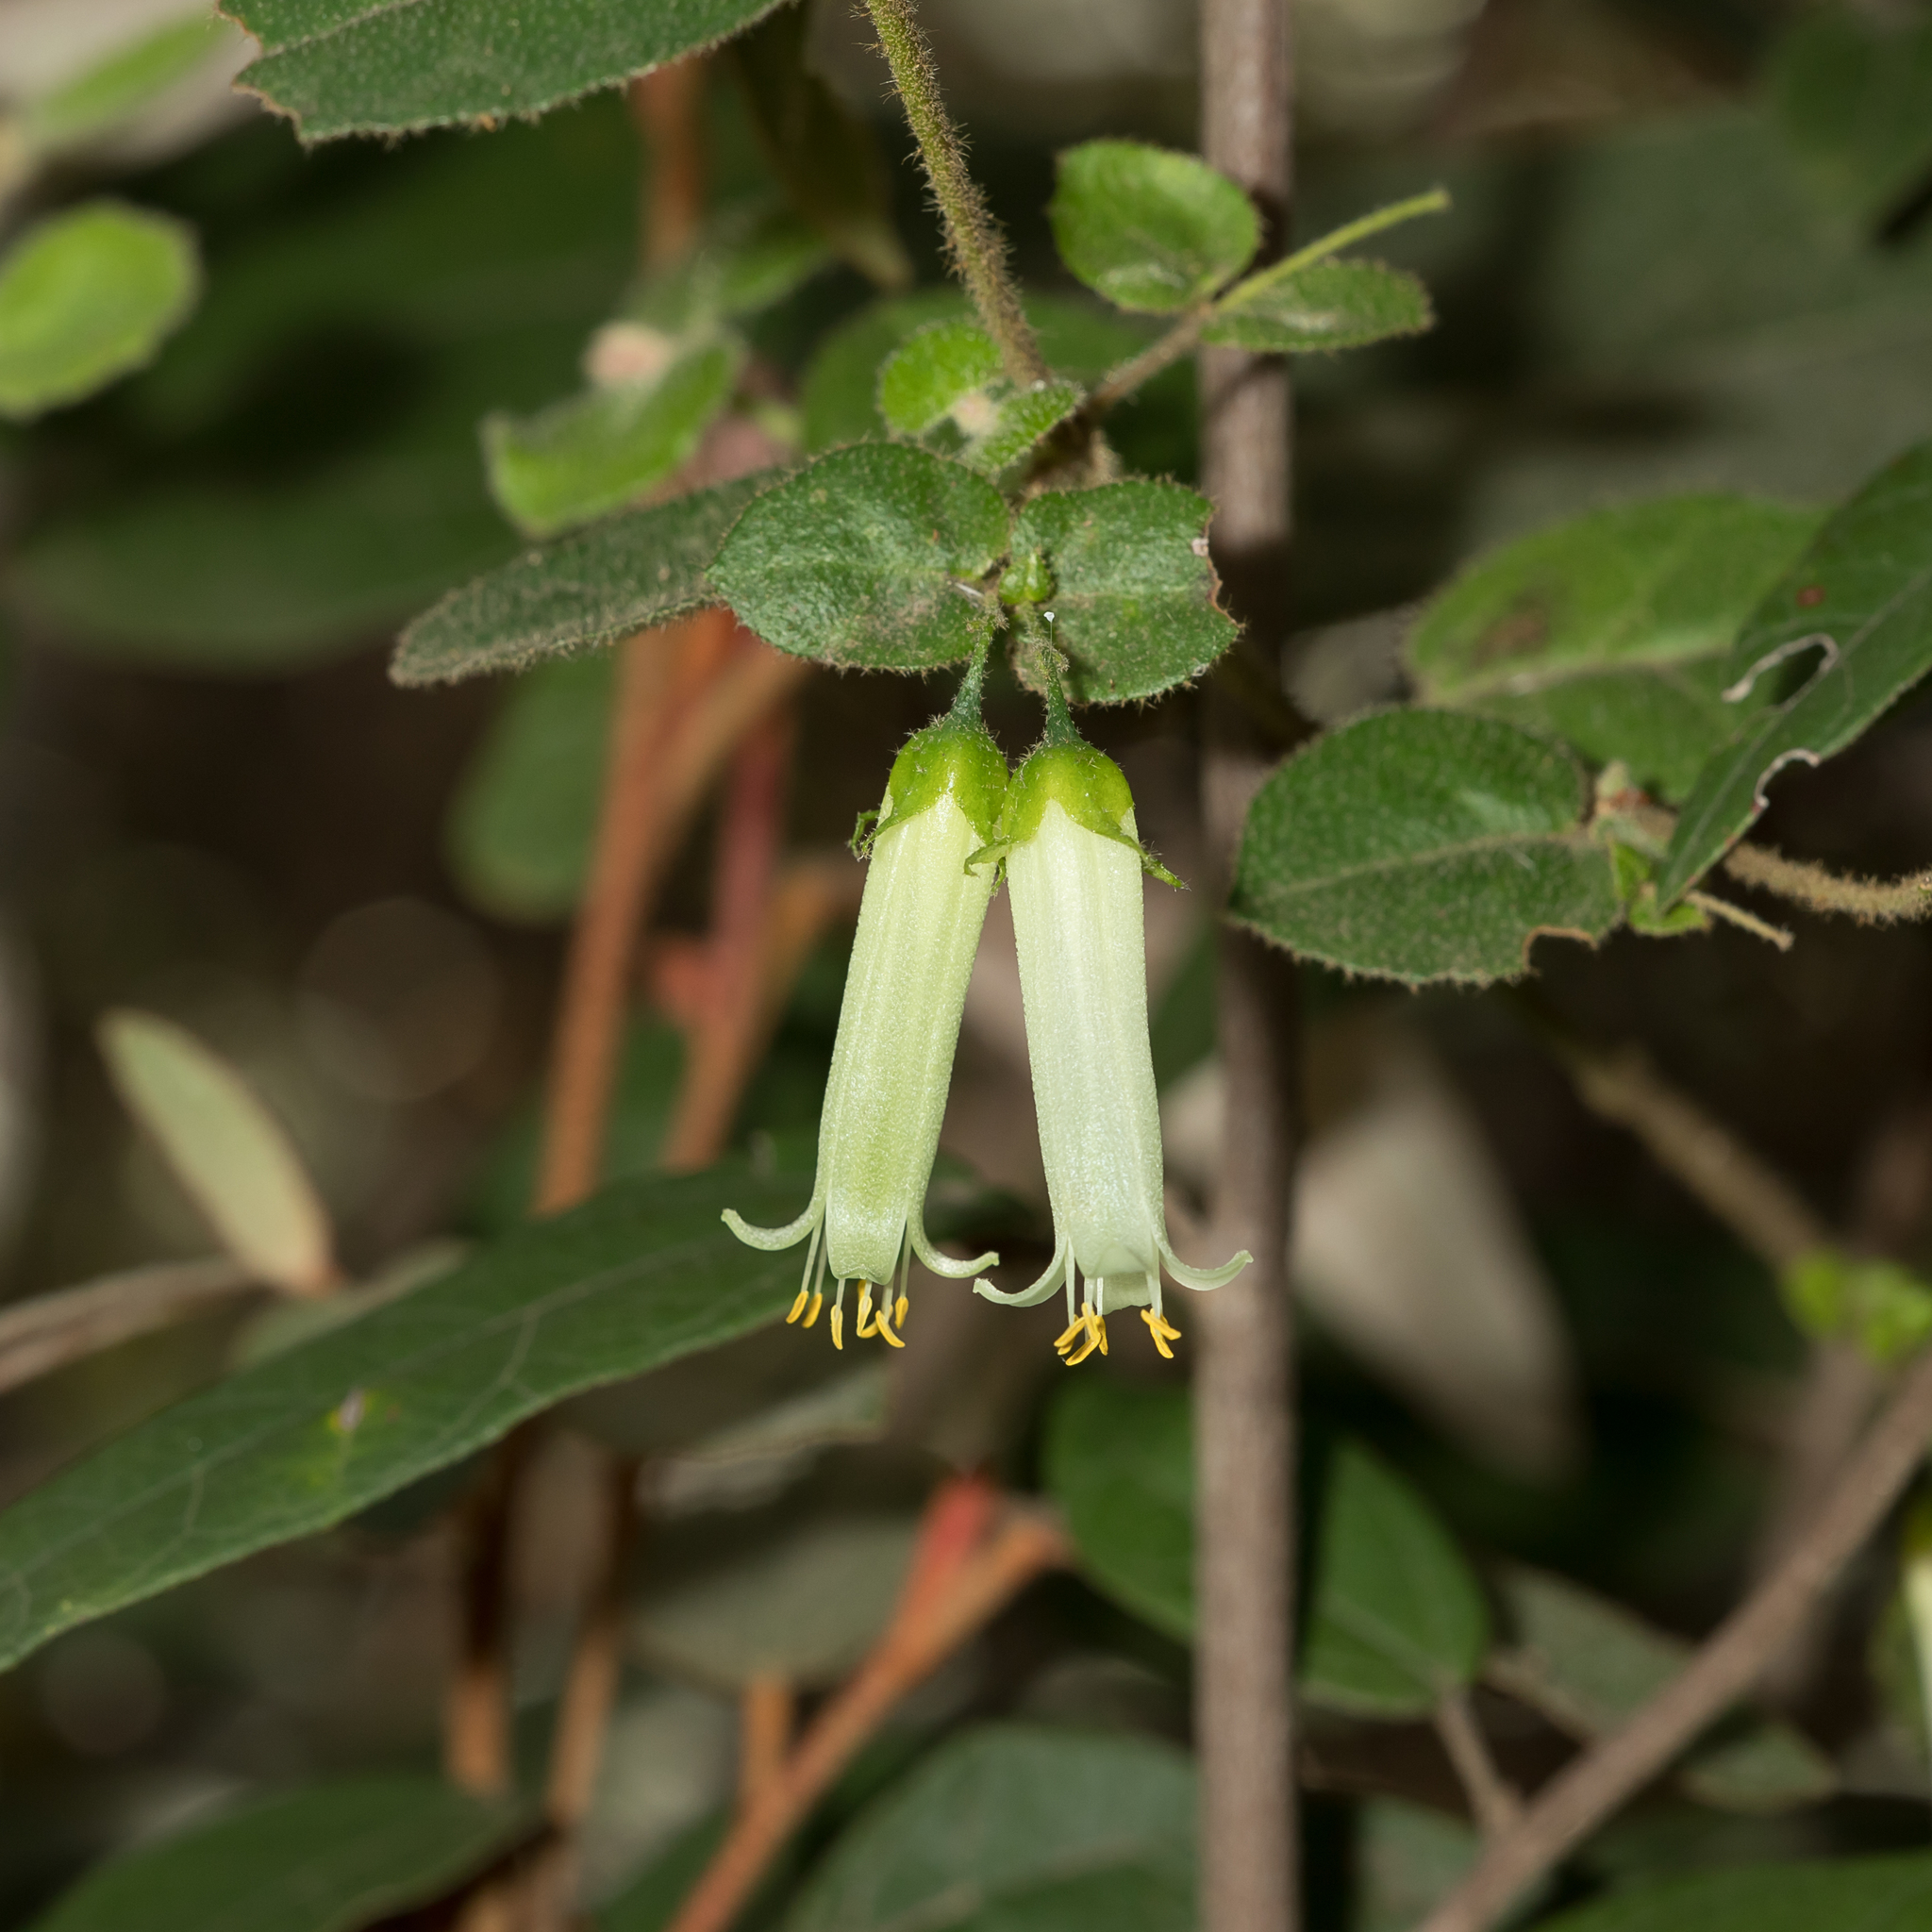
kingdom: Plantae
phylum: Tracheophyta
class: Magnoliopsida
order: Sapindales
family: Rutaceae
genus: Correa
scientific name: Correa aemula
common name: Hairy correa
